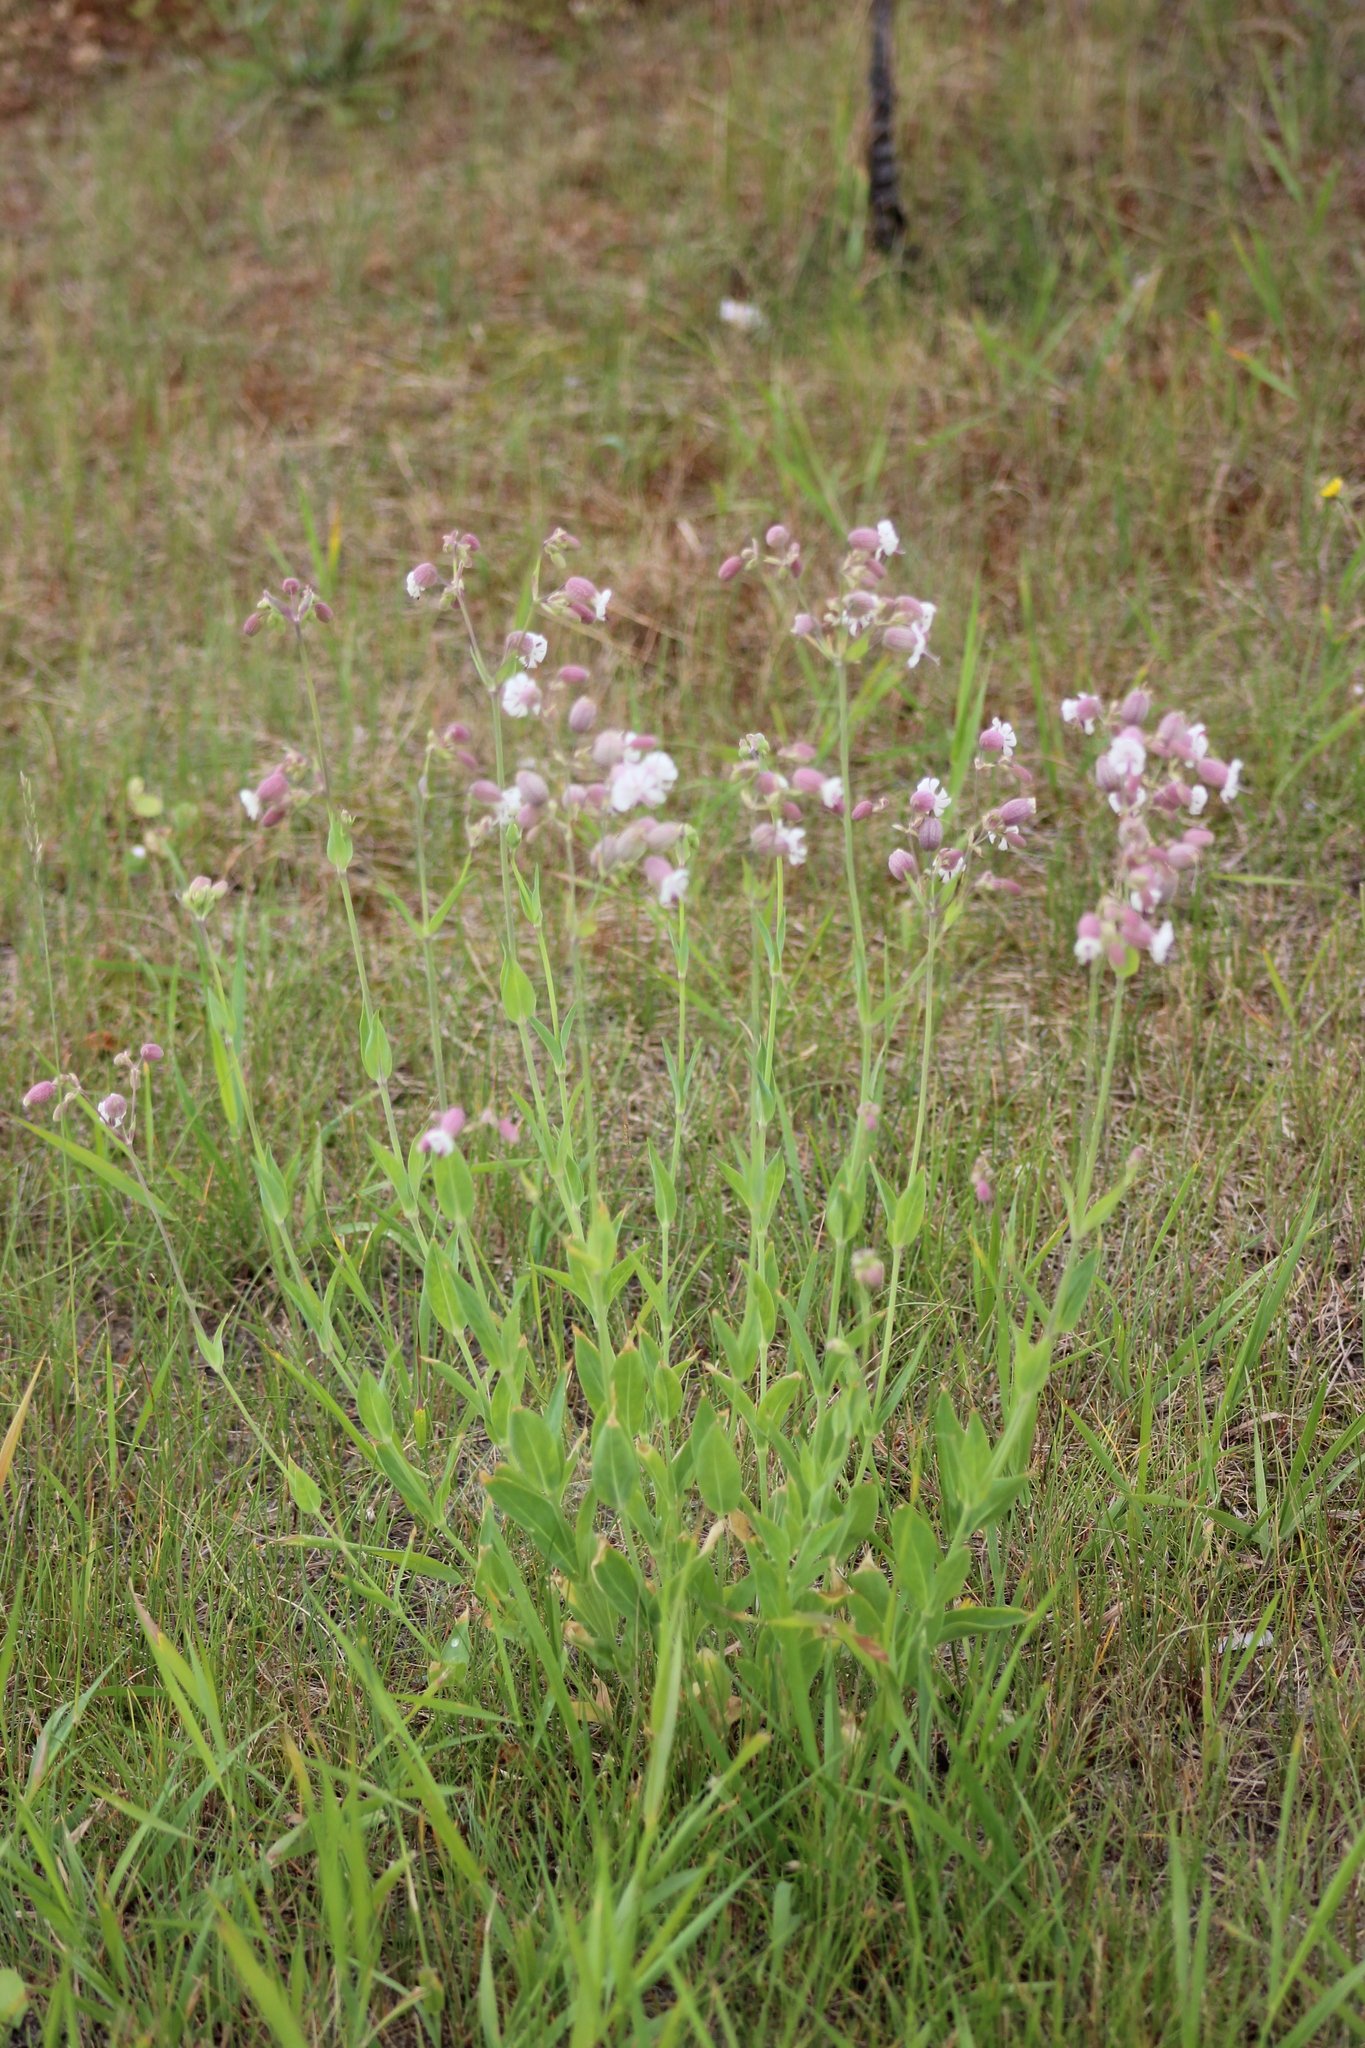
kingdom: Plantae
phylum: Tracheophyta
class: Magnoliopsida
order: Caryophyllales
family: Caryophyllaceae
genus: Silene
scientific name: Silene vulgaris
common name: Bladder campion
